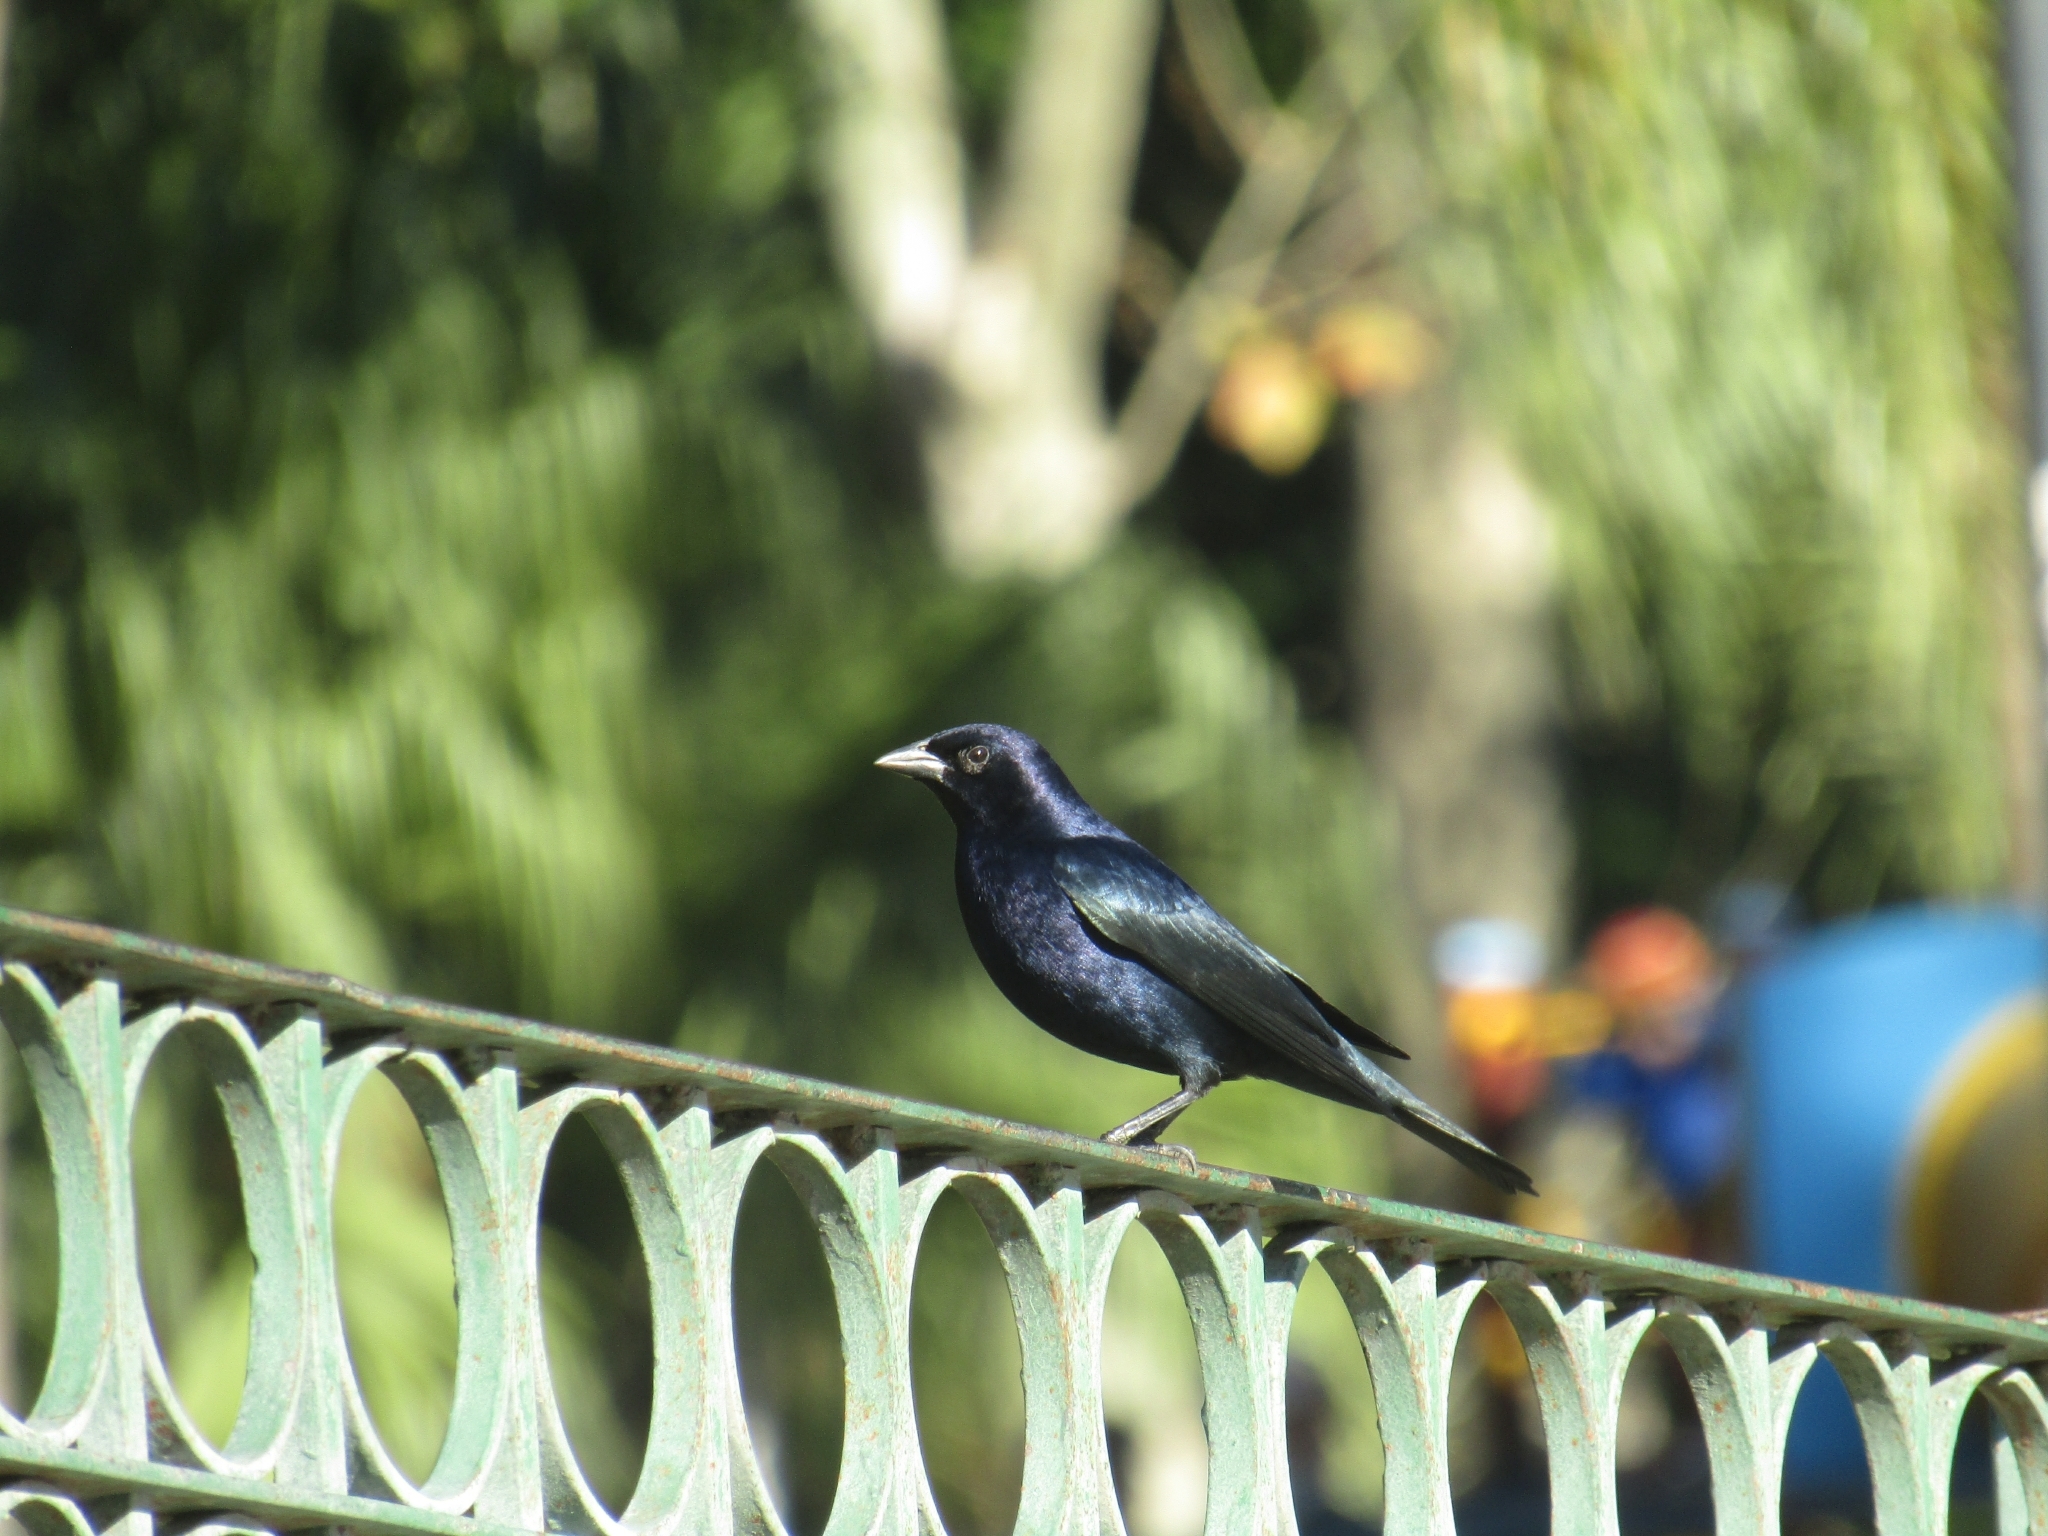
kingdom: Animalia
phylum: Chordata
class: Aves
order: Passeriformes
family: Icteridae
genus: Molothrus
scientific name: Molothrus bonariensis
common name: Shiny cowbird
